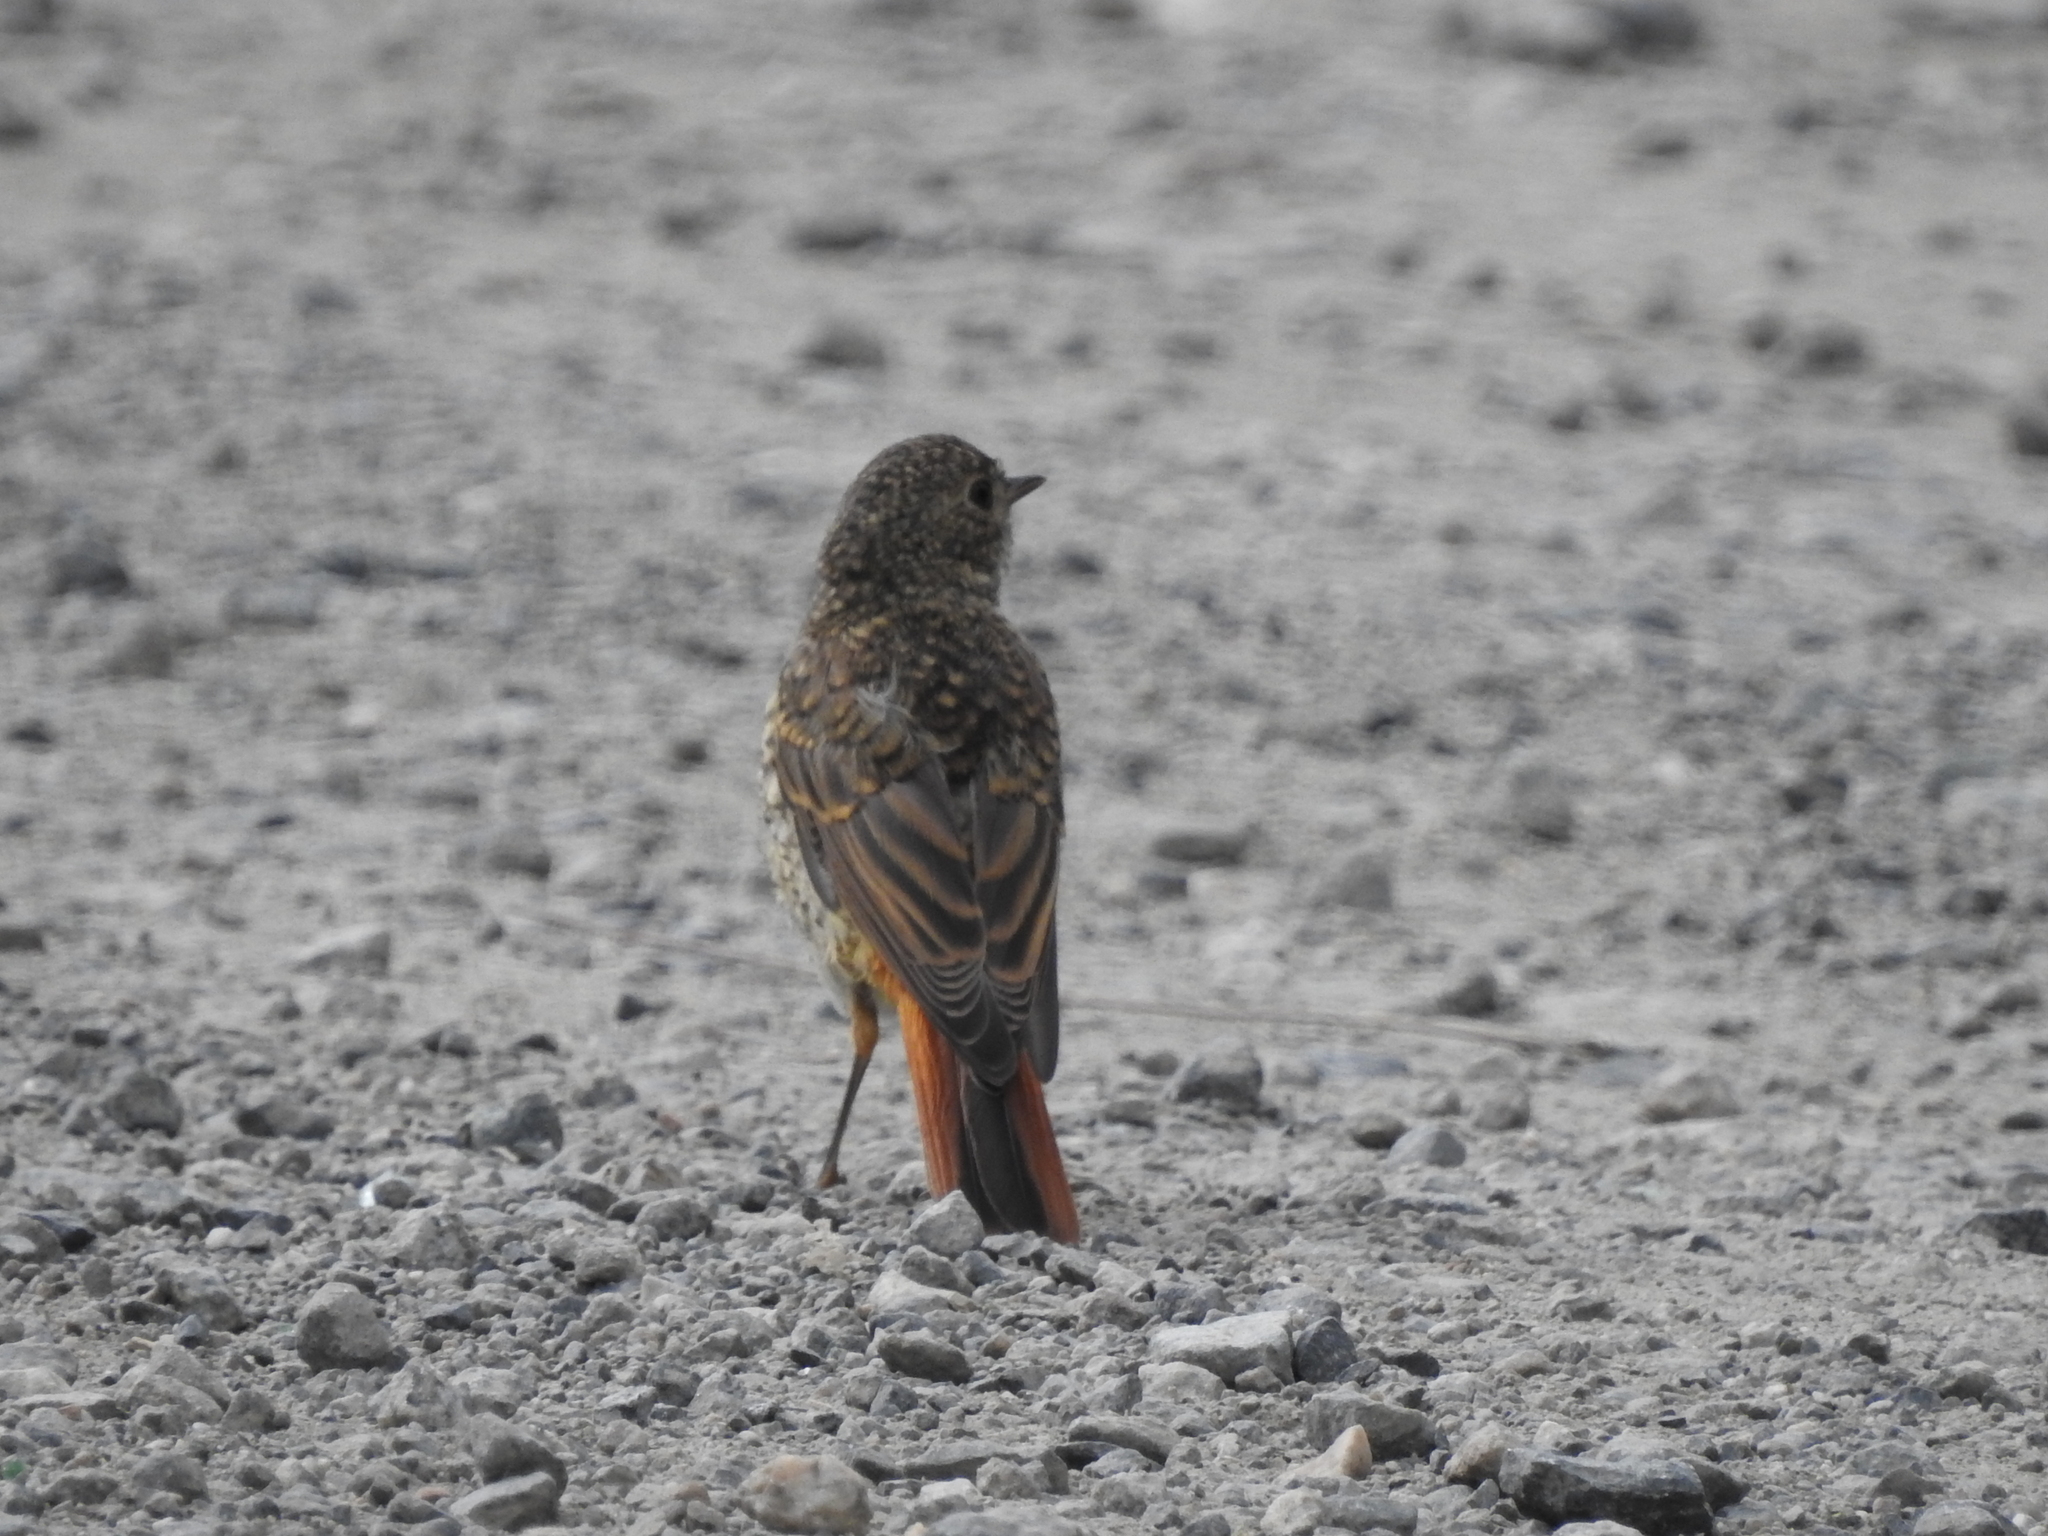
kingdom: Animalia
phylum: Chordata
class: Aves
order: Passeriformes
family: Muscicapidae
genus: Phoenicurus
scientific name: Phoenicurus phoenicurus
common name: Common redstart
